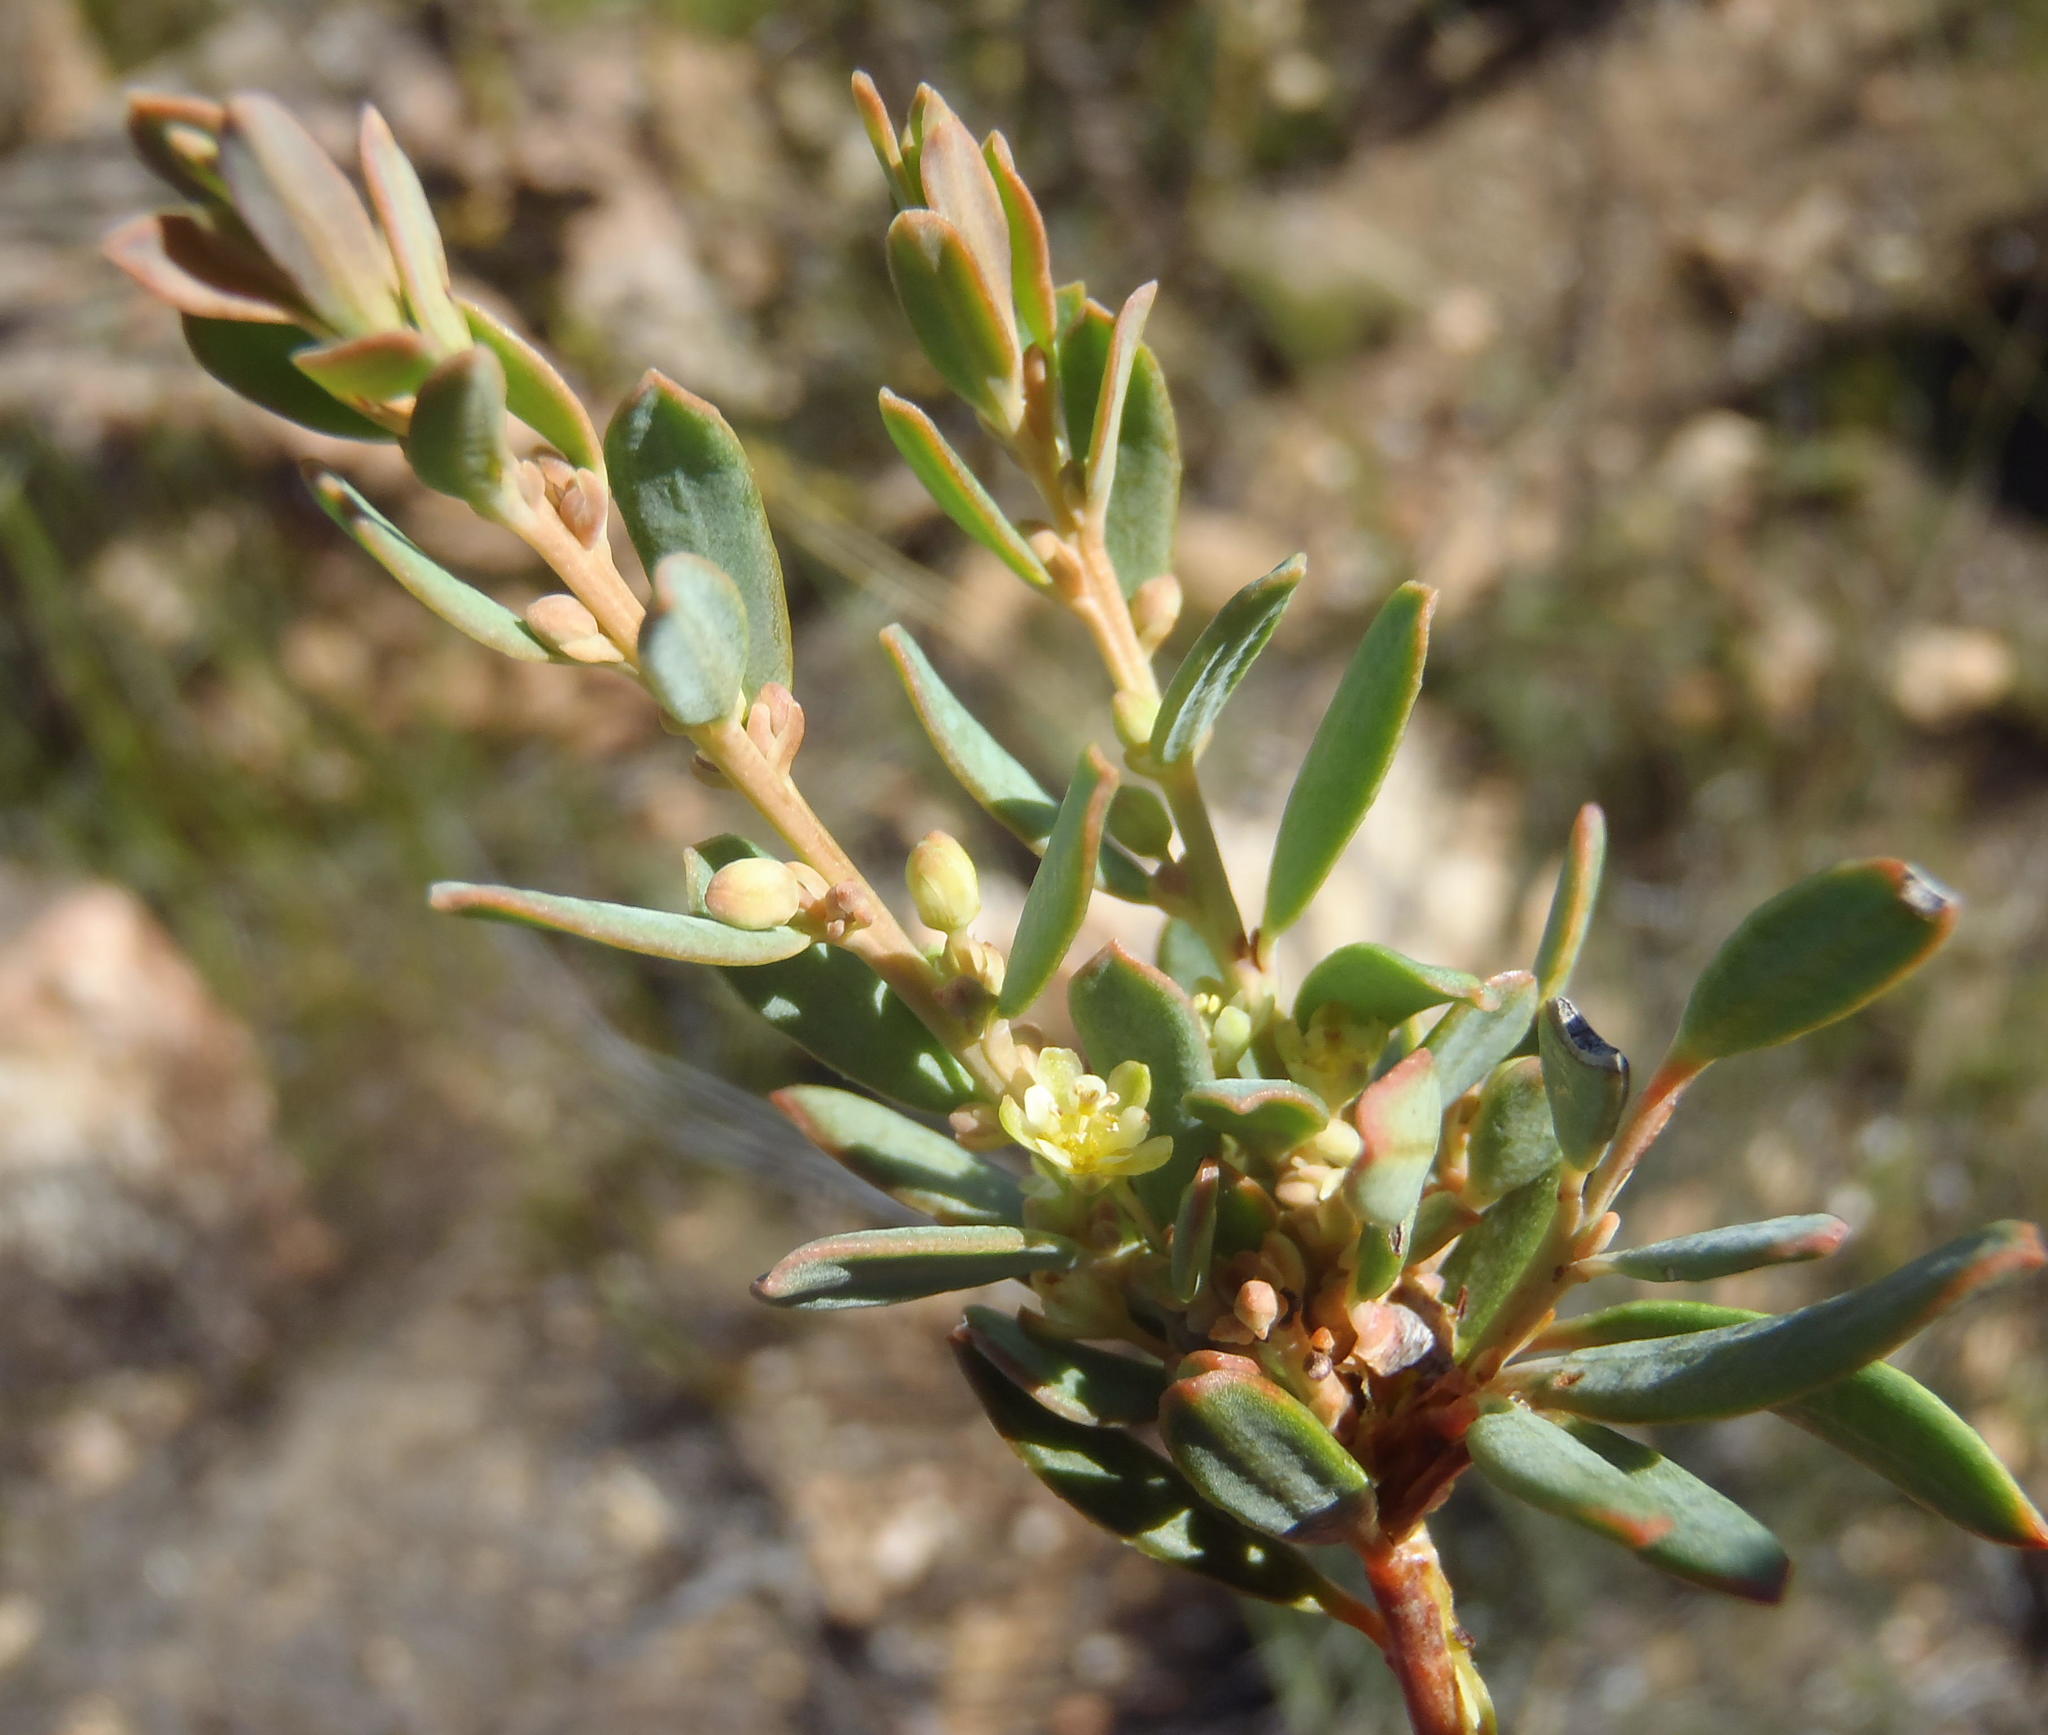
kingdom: Plantae
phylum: Tracheophyta
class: Magnoliopsida
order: Malpighiales
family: Peraceae
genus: Clutia
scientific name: Clutia laxa
